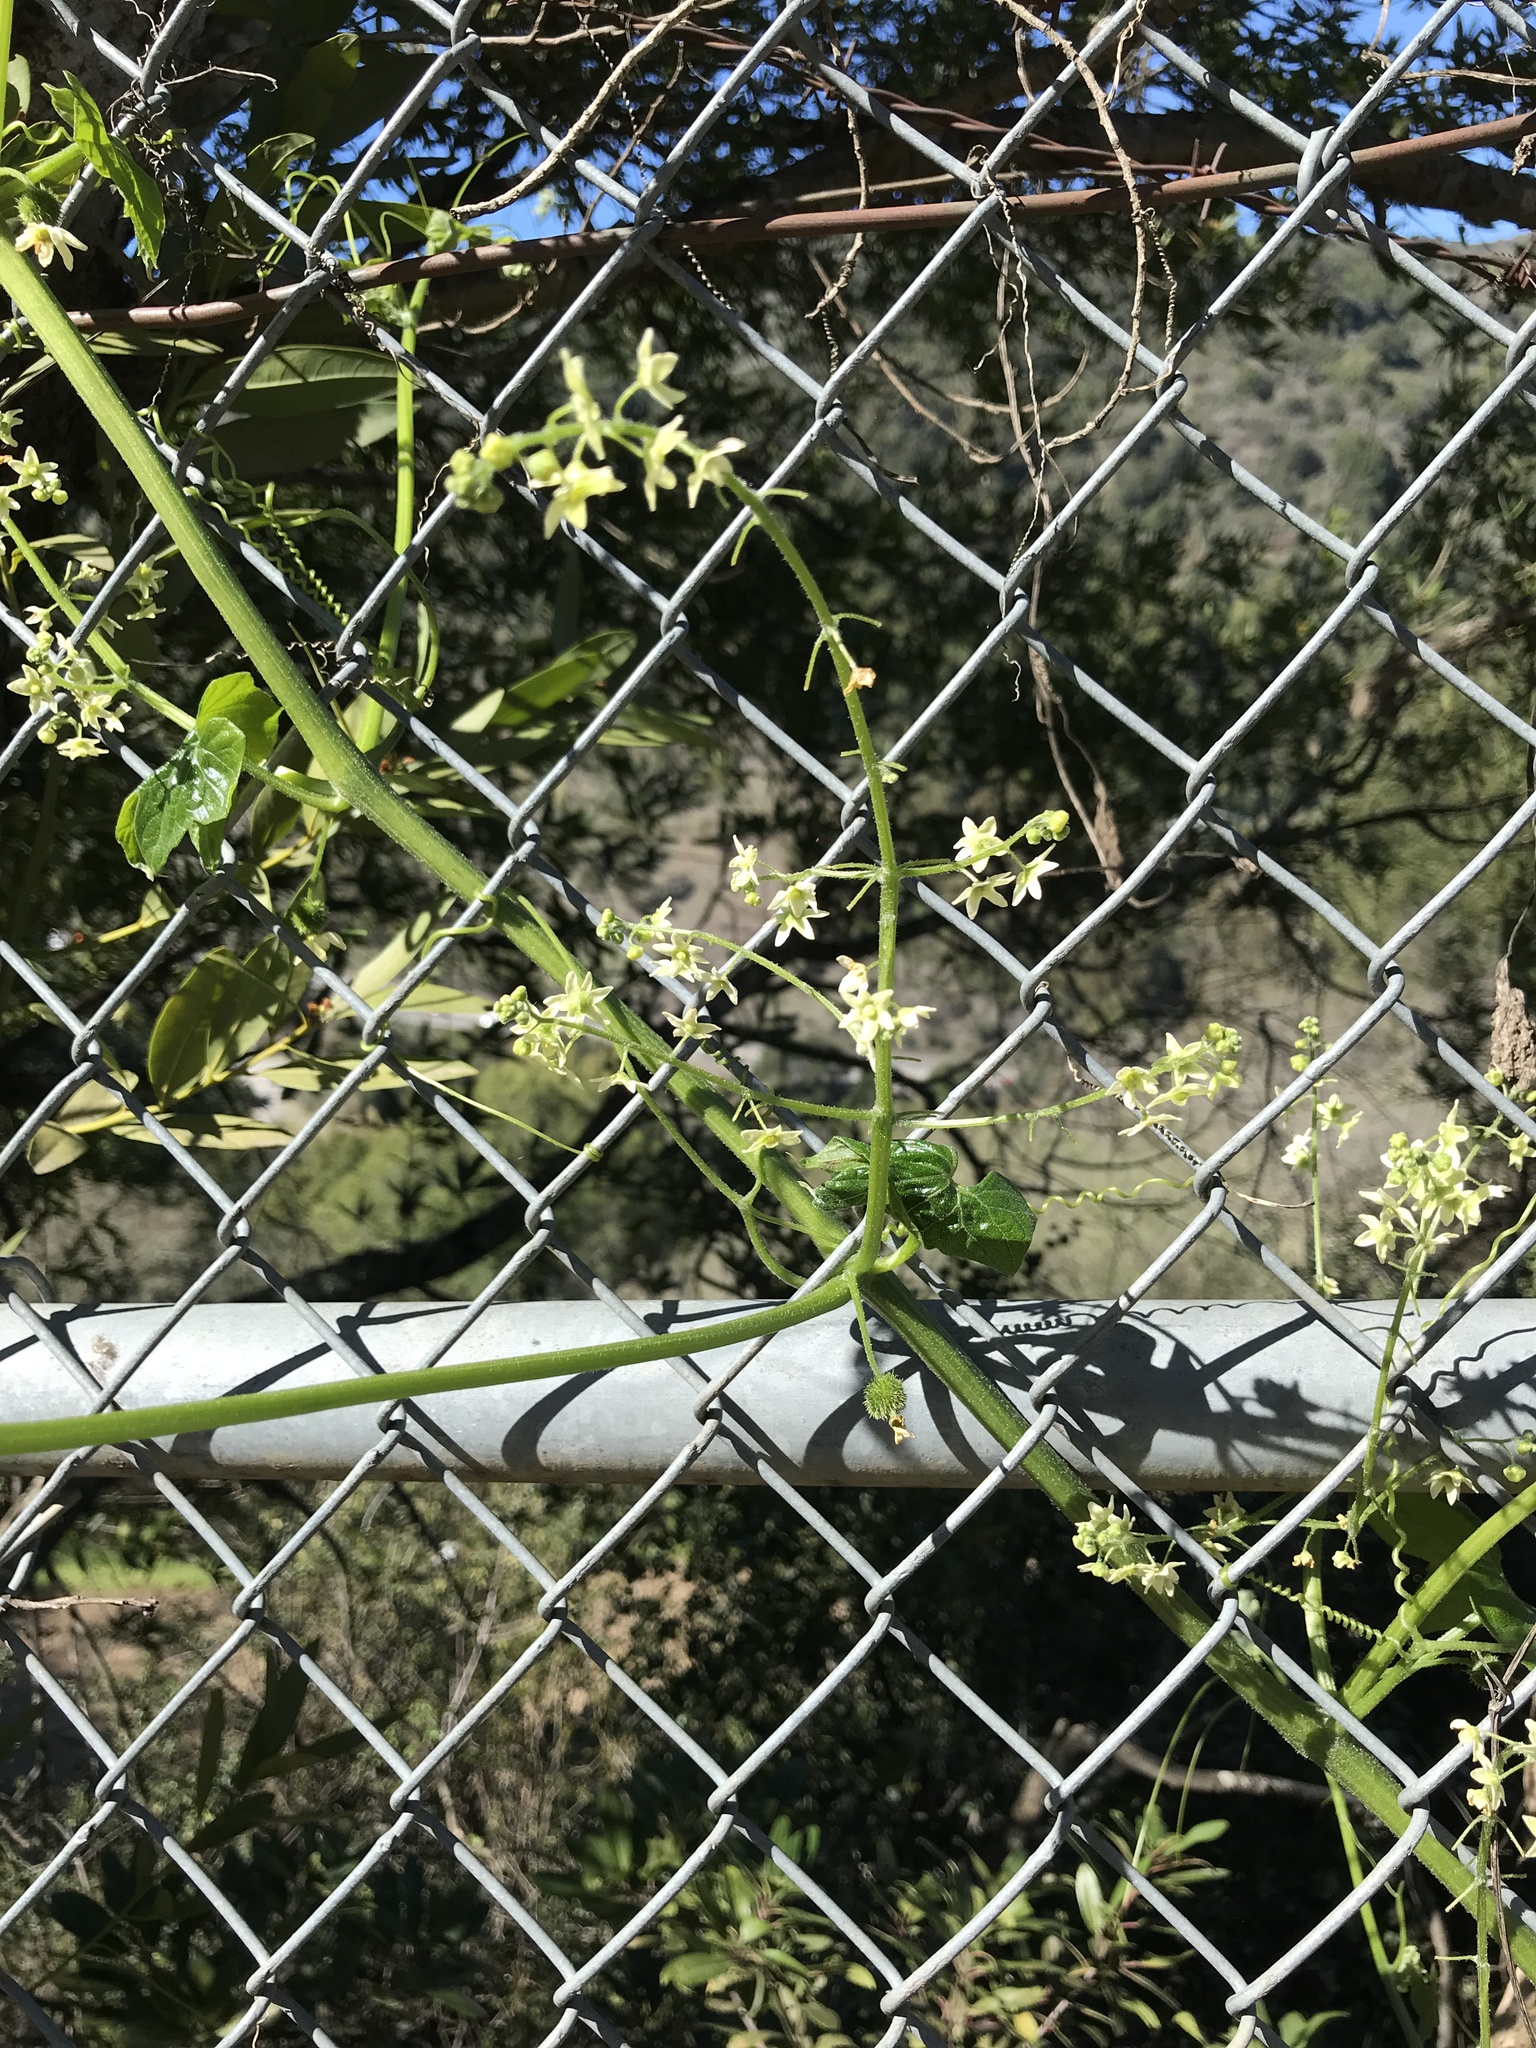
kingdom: Plantae
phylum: Tracheophyta
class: Magnoliopsida
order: Cucurbitales
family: Cucurbitaceae
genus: Marah
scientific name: Marah fabacea
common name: California manroot
